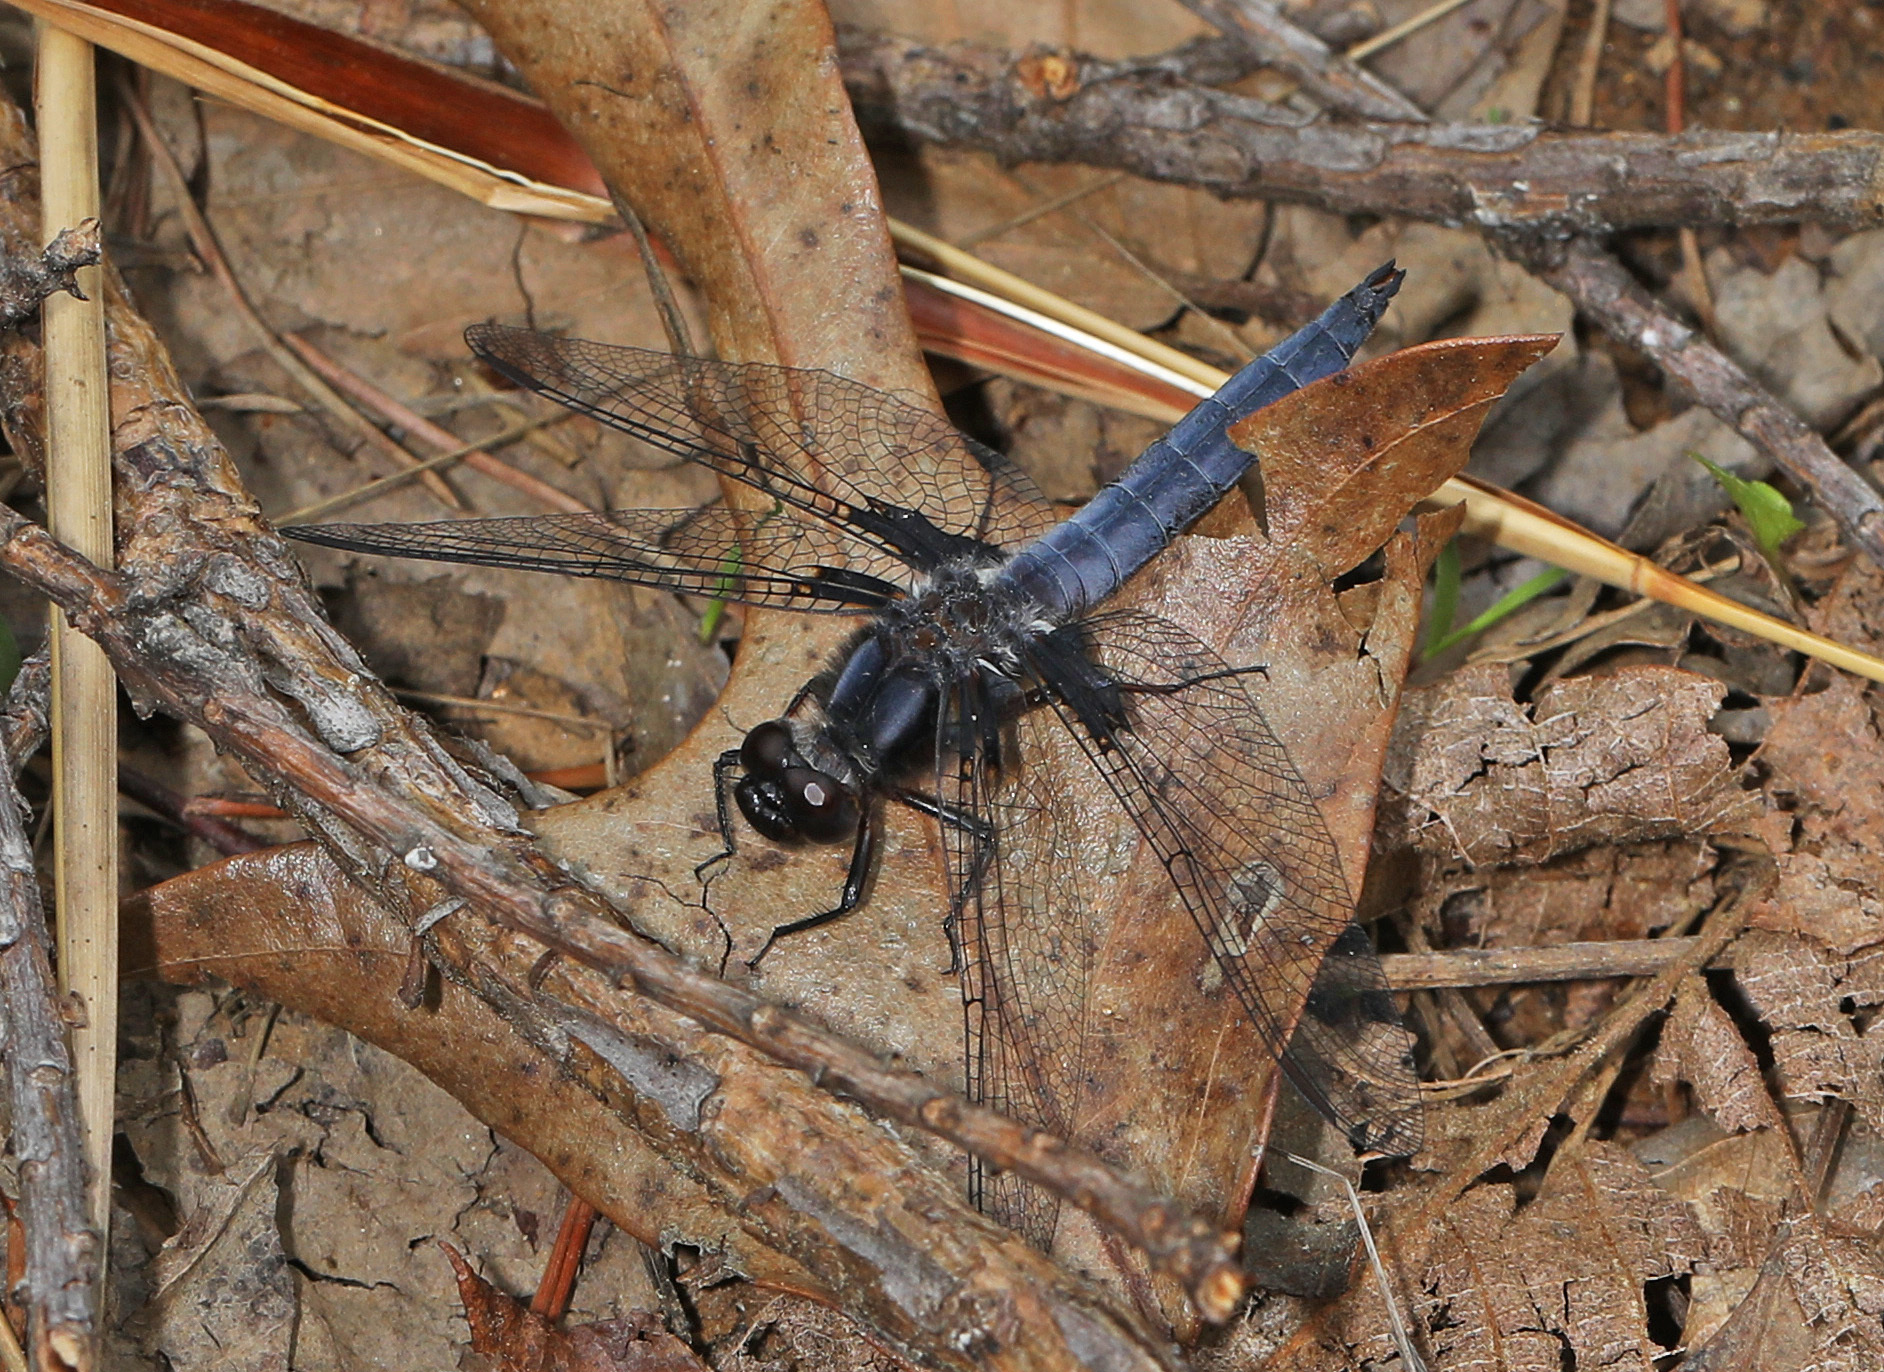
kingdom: Animalia
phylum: Arthropoda
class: Insecta
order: Odonata
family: Libellulidae
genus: Ladona
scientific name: Ladona deplanata
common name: Blue corporal
